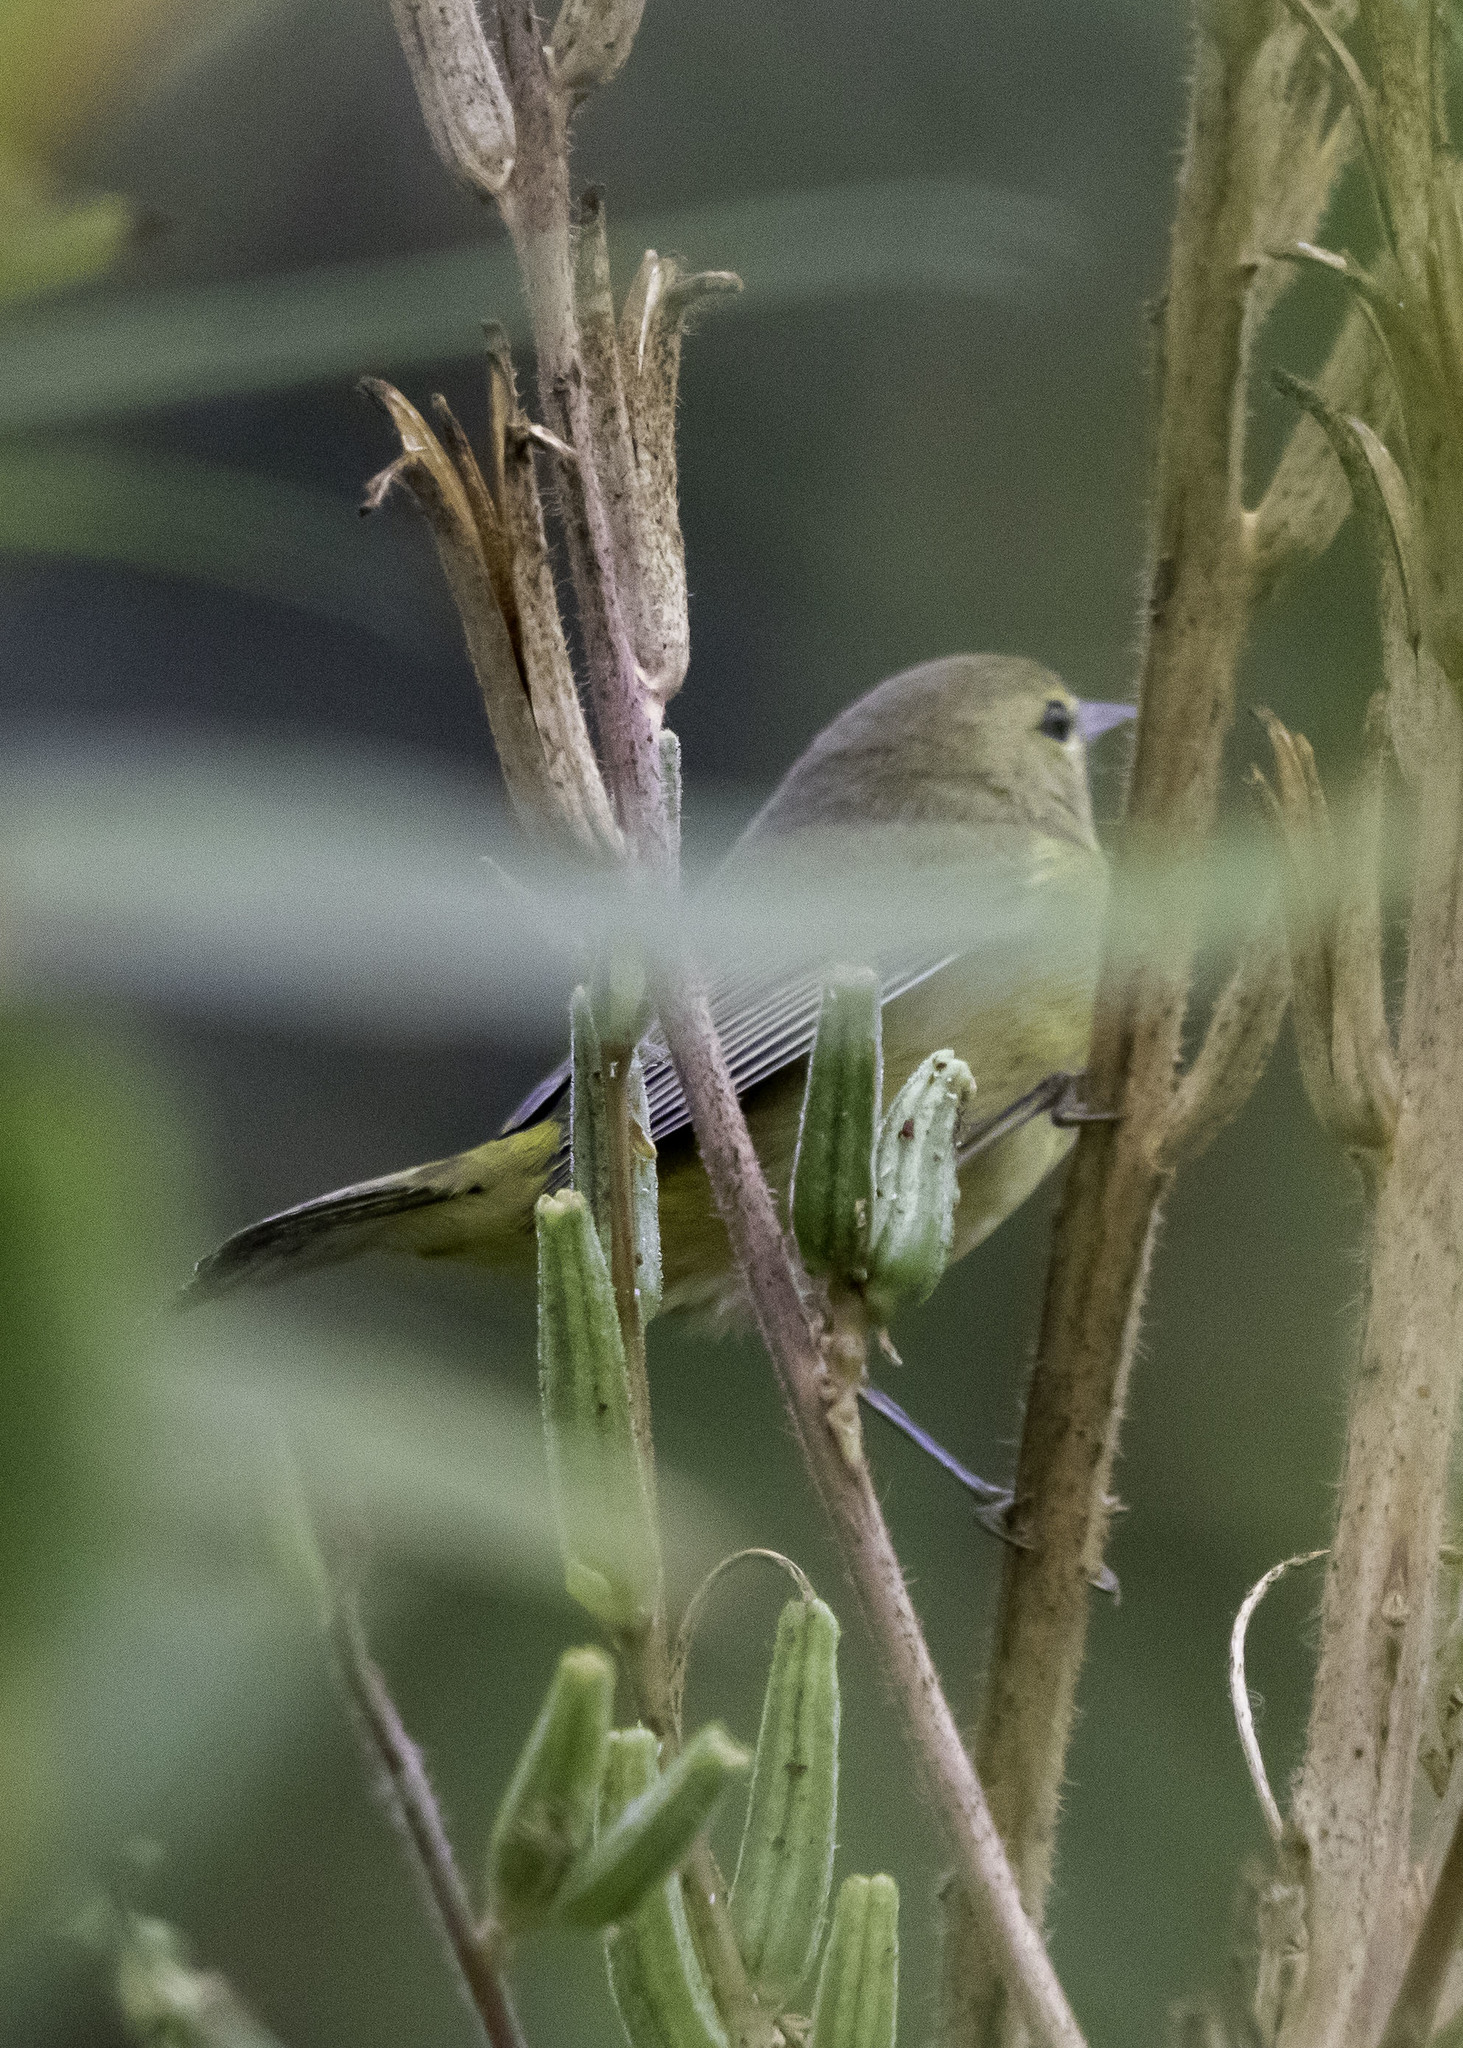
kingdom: Animalia
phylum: Chordata
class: Aves
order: Passeriformes
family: Parulidae
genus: Leiothlypis
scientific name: Leiothlypis celata
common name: Orange-crowned warbler
